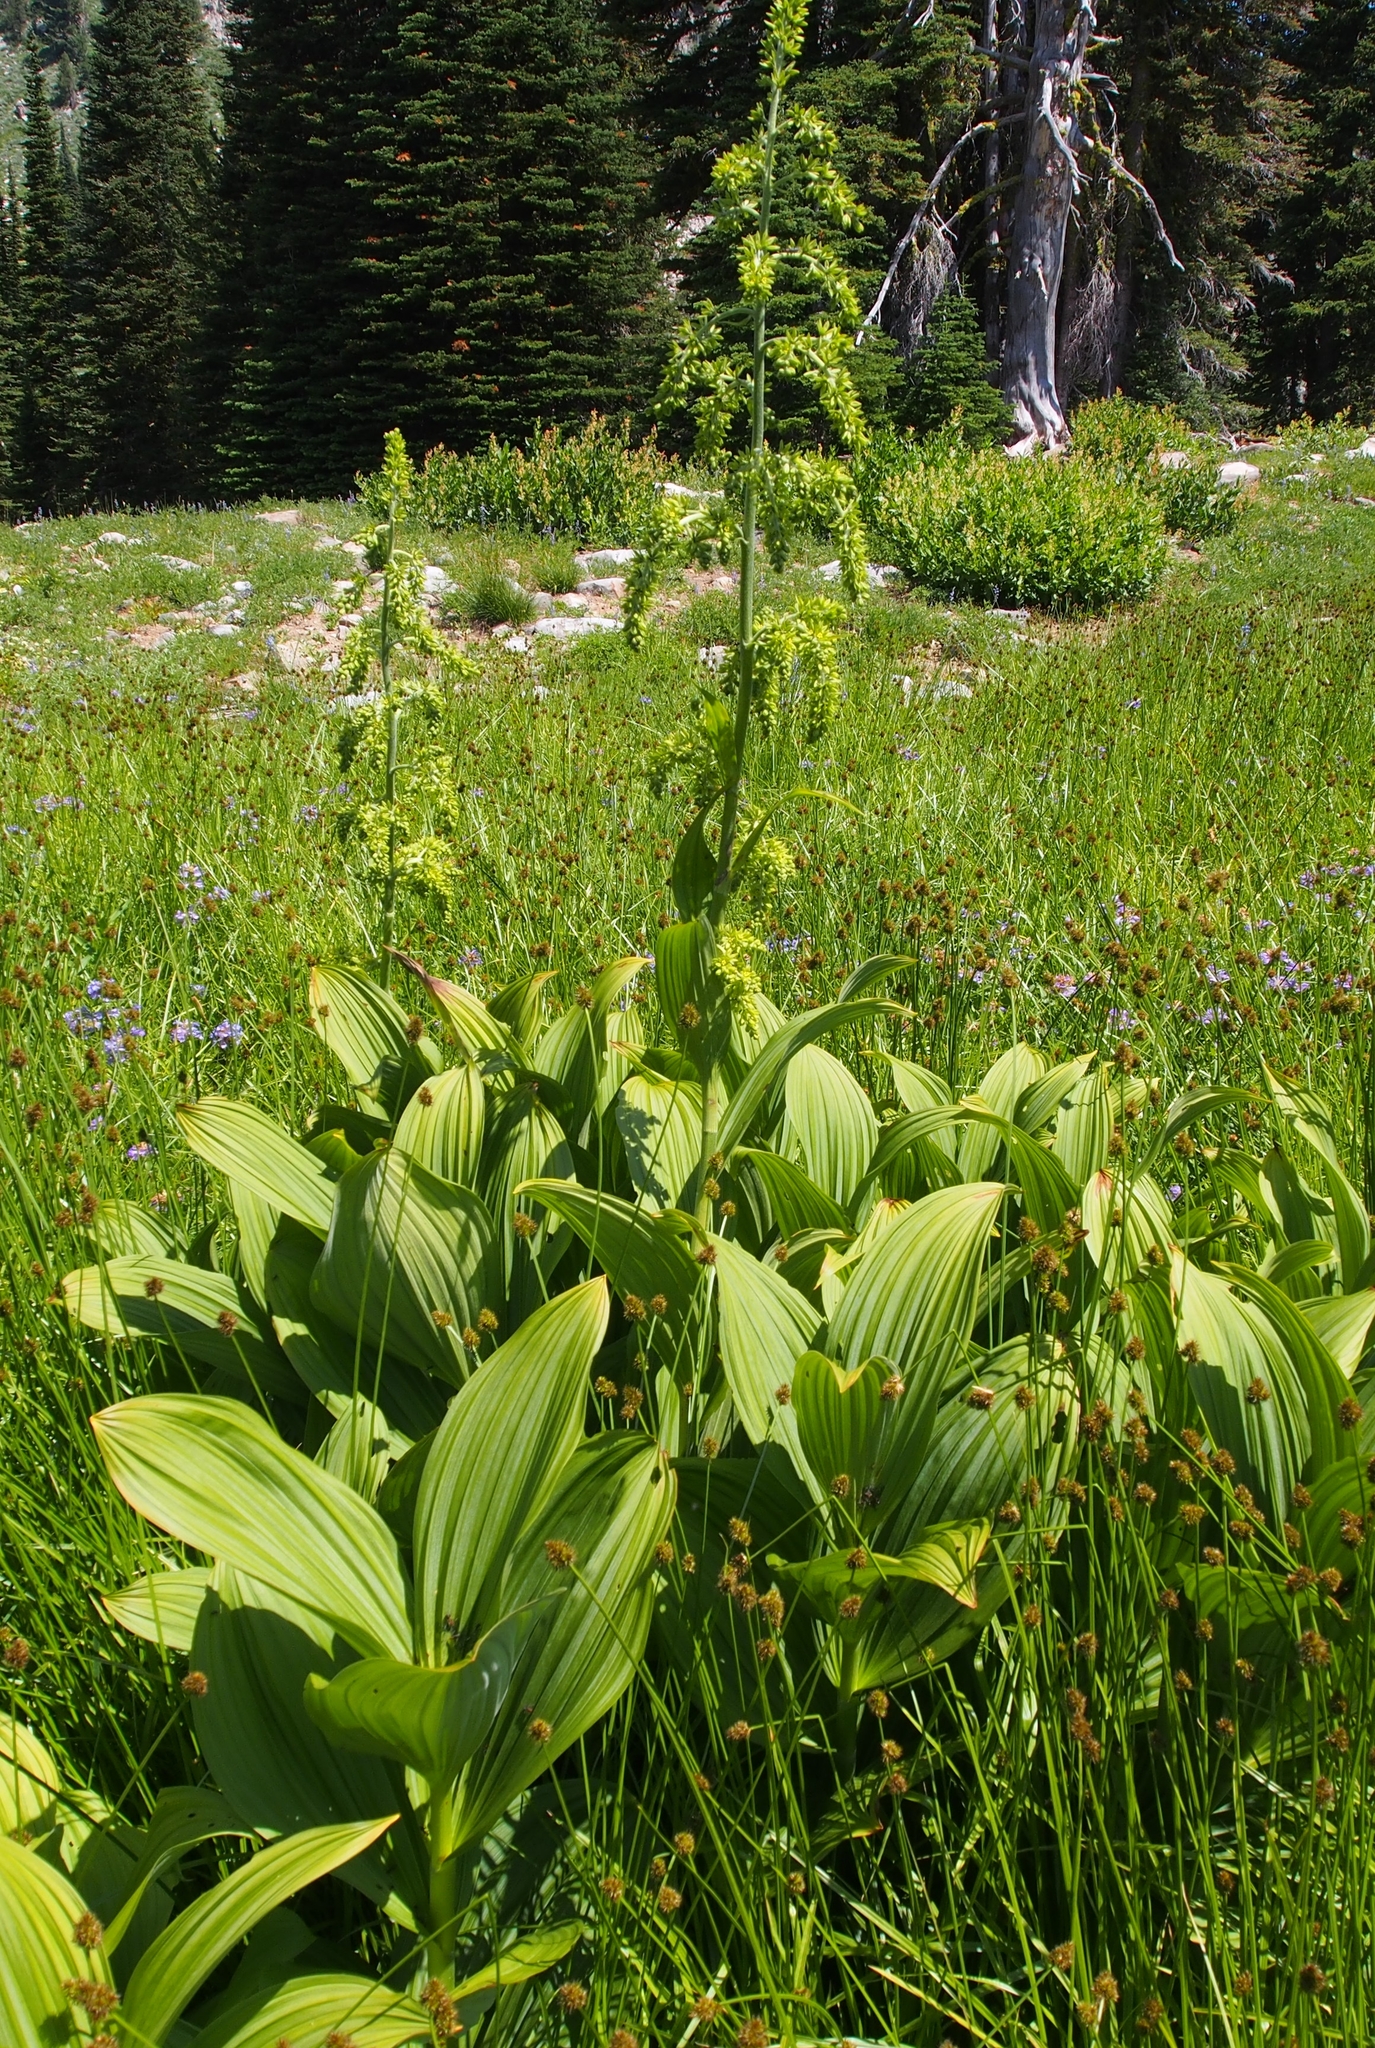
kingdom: Plantae
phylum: Tracheophyta
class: Liliopsida
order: Liliales
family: Melanthiaceae
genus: Veratrum
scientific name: Veratrum viride
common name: American false hellebore
